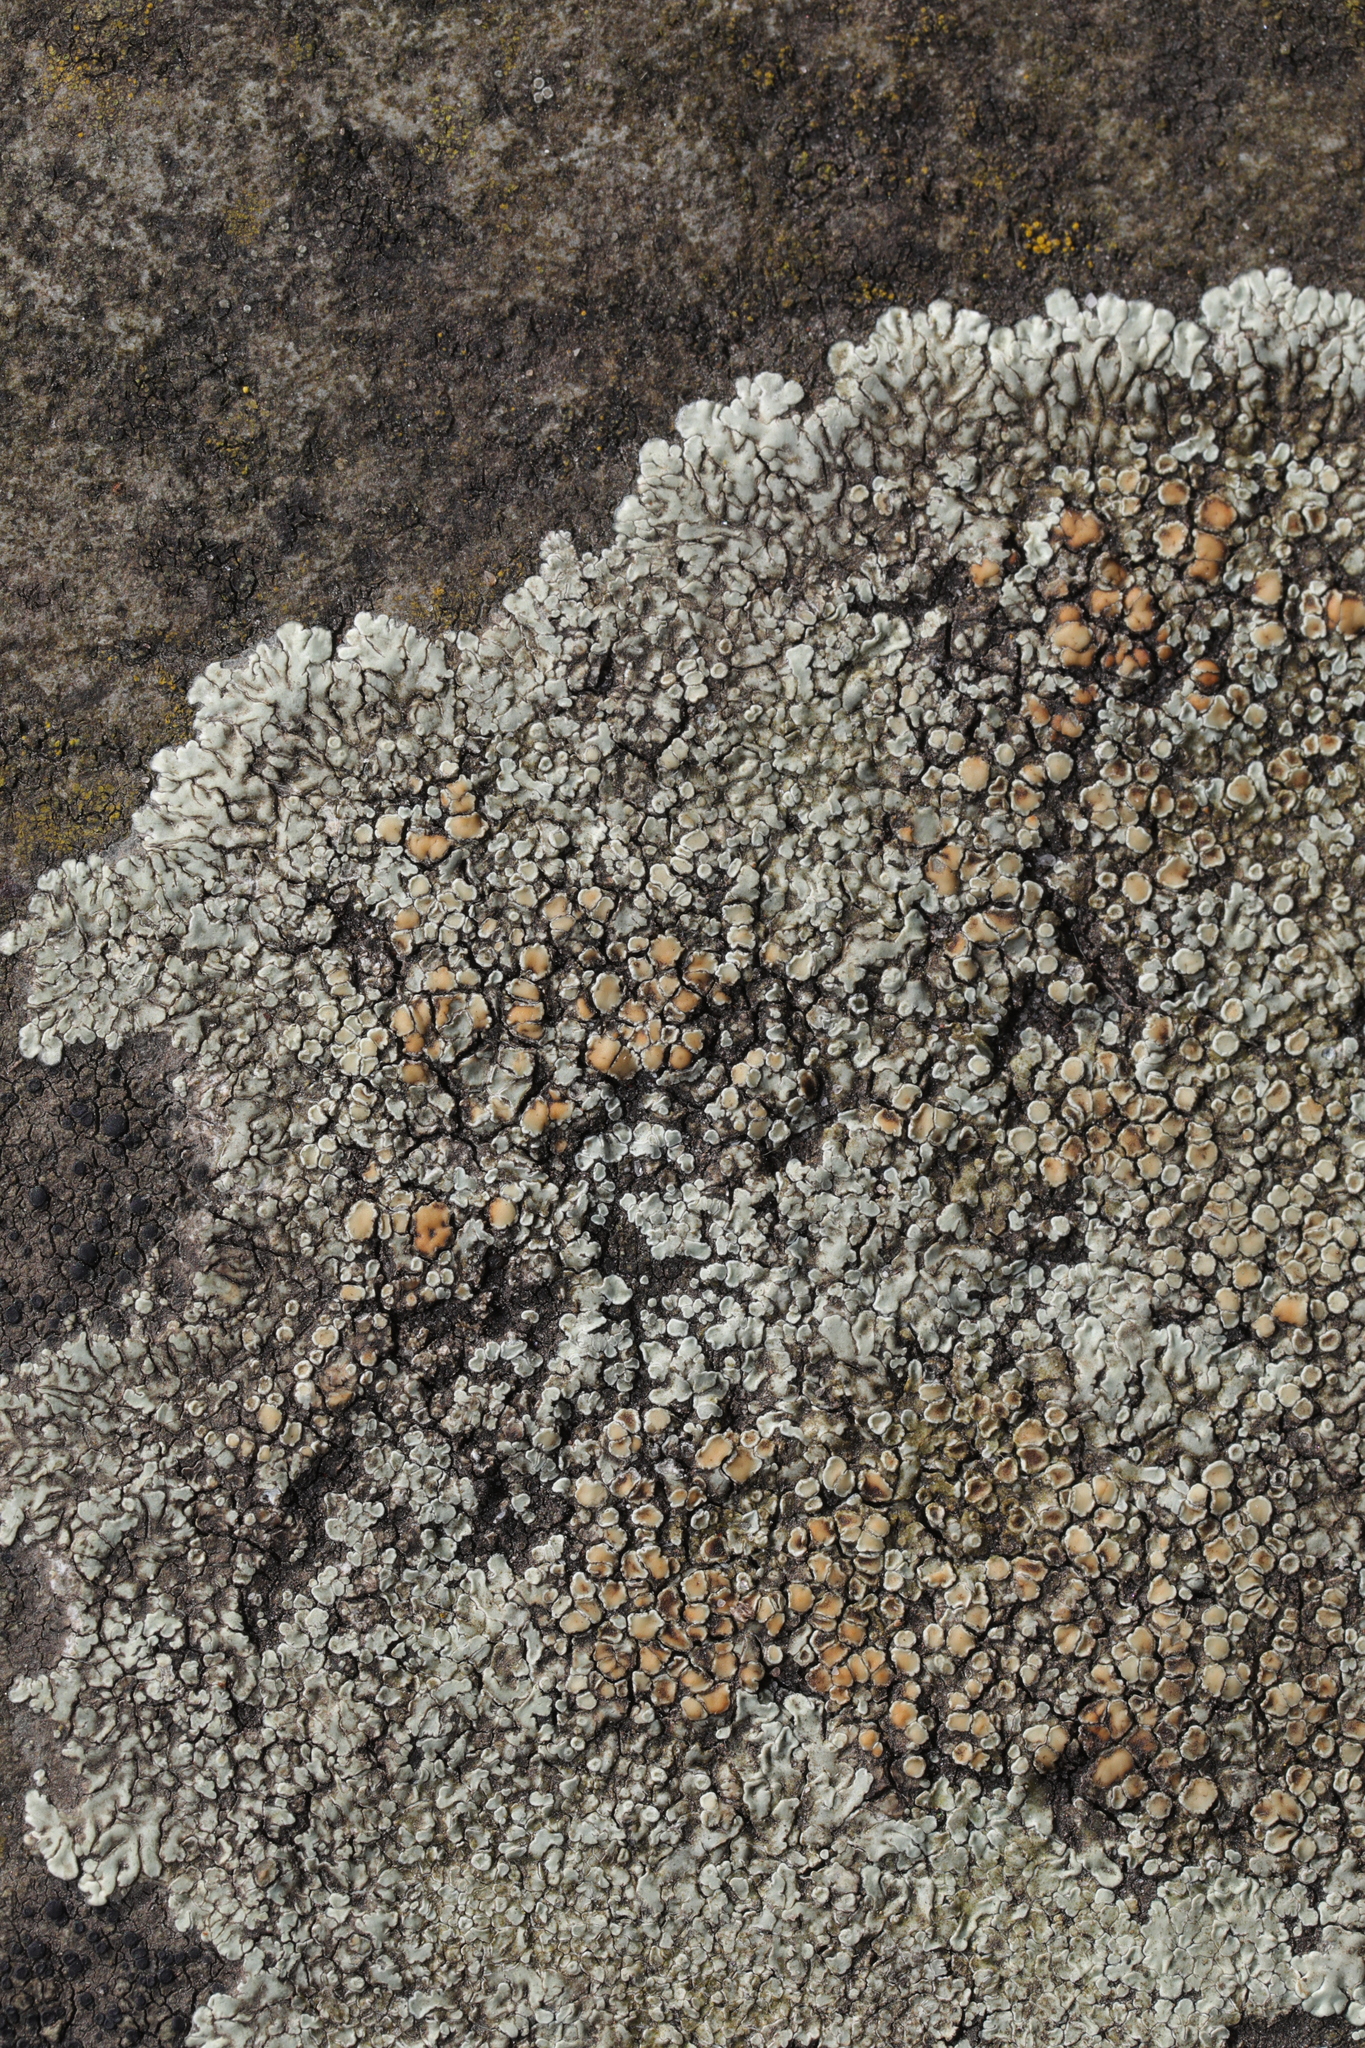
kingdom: Fungi
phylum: Ascomycota
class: Lecanoromycetes
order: Lecanorales
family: Lecanoraceae
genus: Protoparmeliopsis
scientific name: Protoparmeliopsis muralis
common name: Stonewall rim lichen
